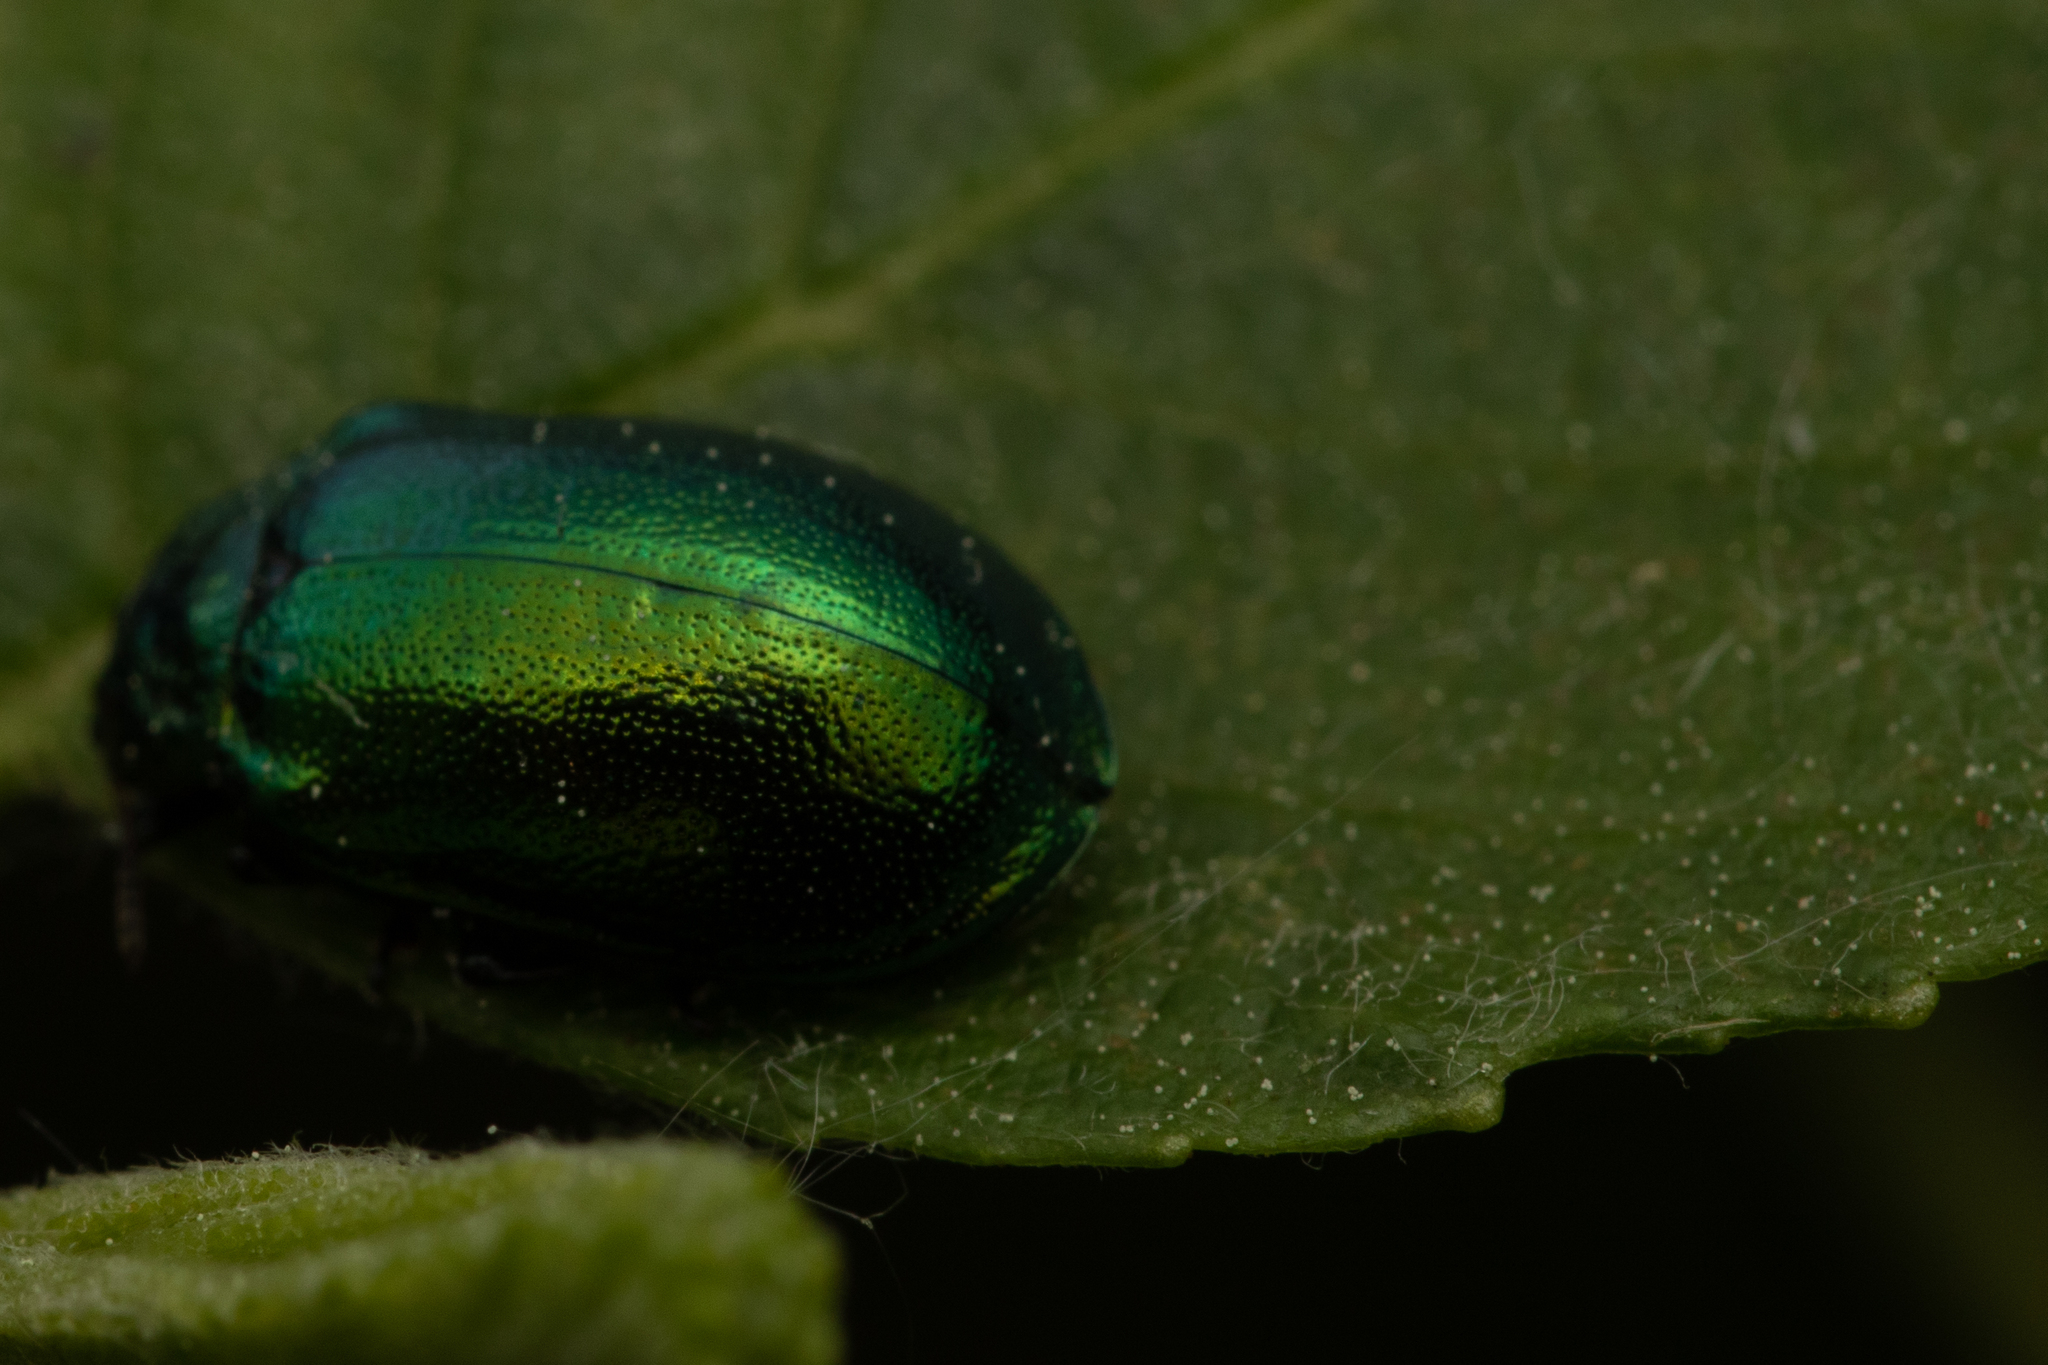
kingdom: Animalia
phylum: Arthropoda
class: Insecta
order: Coleoptera
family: Chrysomelidae
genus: Plagiosterna
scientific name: Plagiosterna aenea
